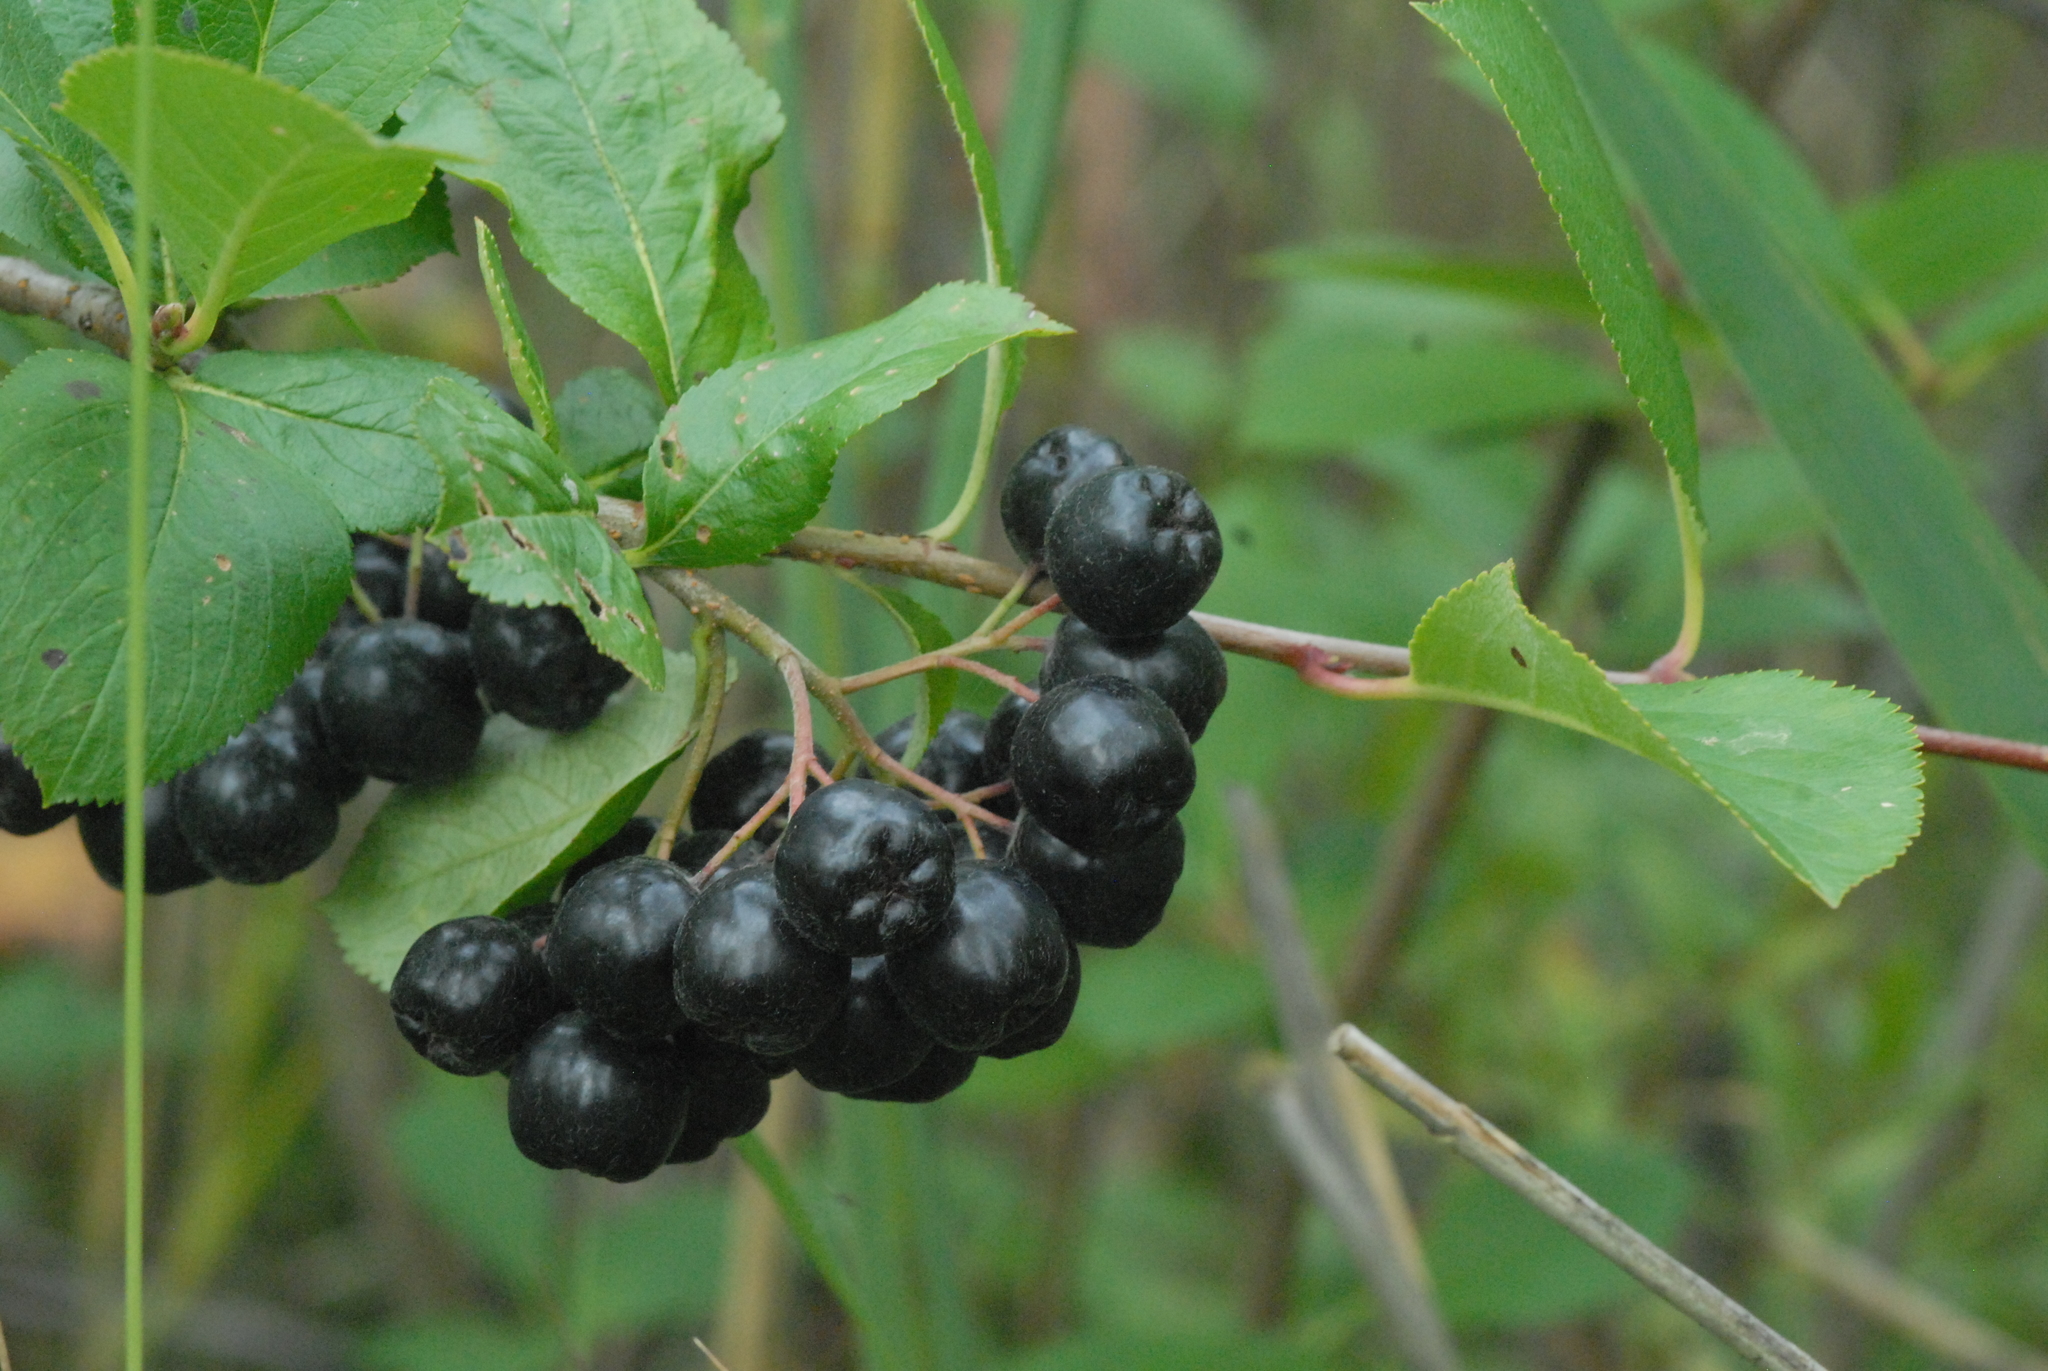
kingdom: Plantae
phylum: Tracheophyta
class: Magnoliopsida
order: Rosales
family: Rosaceae
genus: Sorbaronia
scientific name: Sorbaronia arsenii
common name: Arsène's mountain-ash
